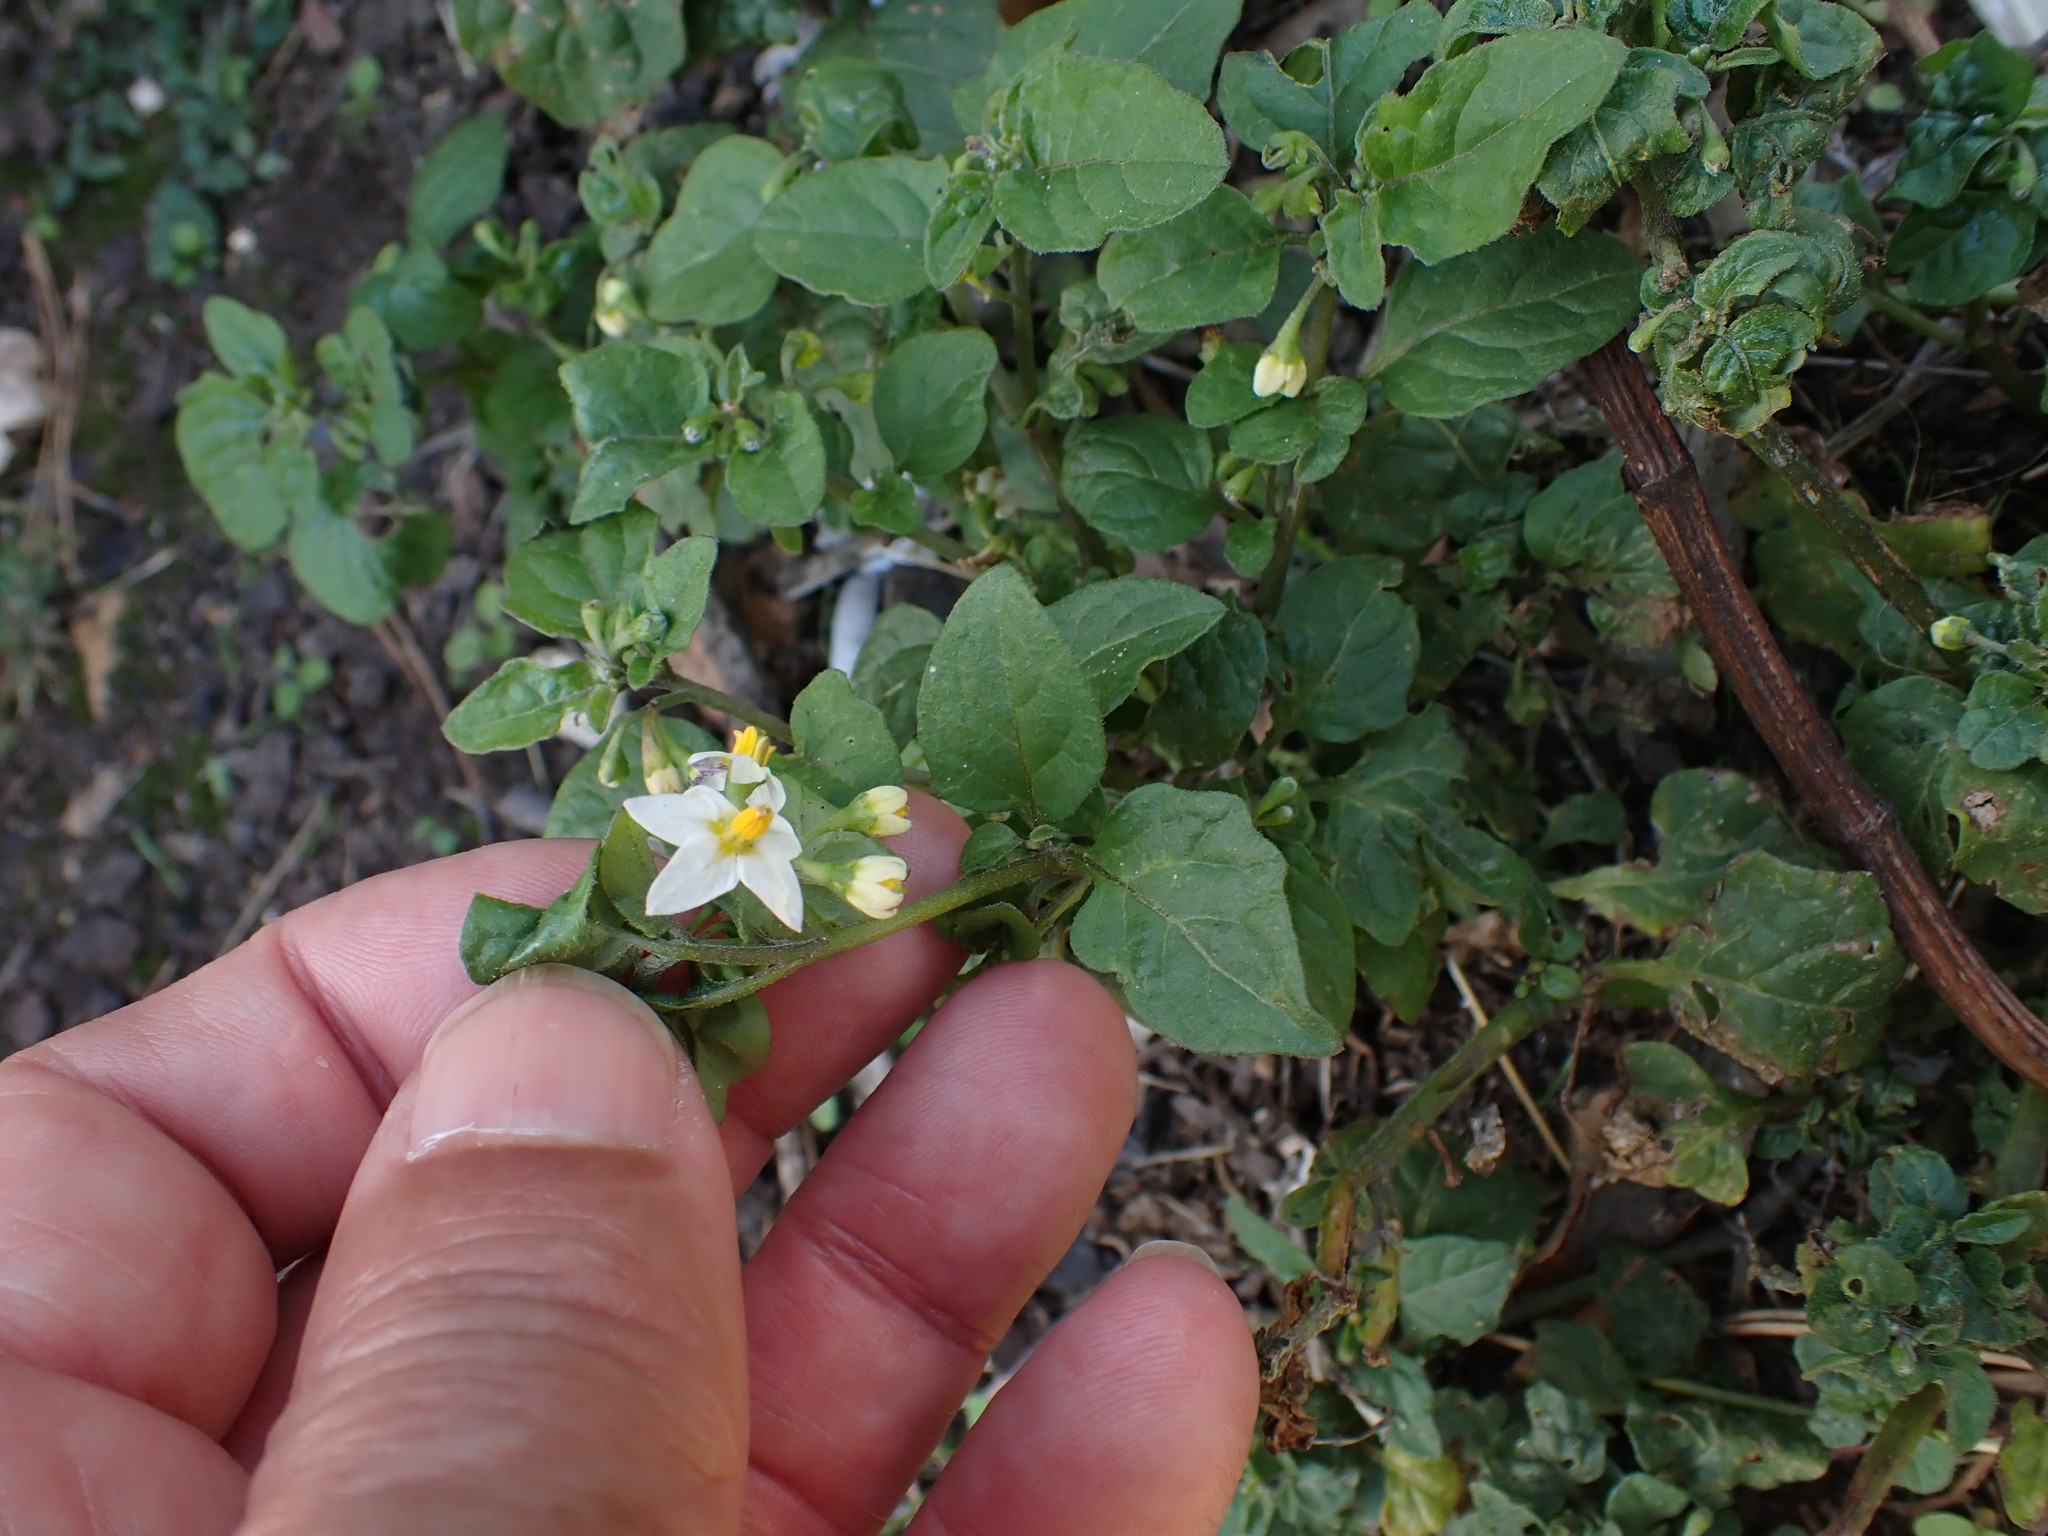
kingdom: Plantae
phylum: Tracheophyta
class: Magnoliopsida
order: Solanales
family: Solanaceae
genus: Solanum
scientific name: Solanum nigrum
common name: Black nightshade
